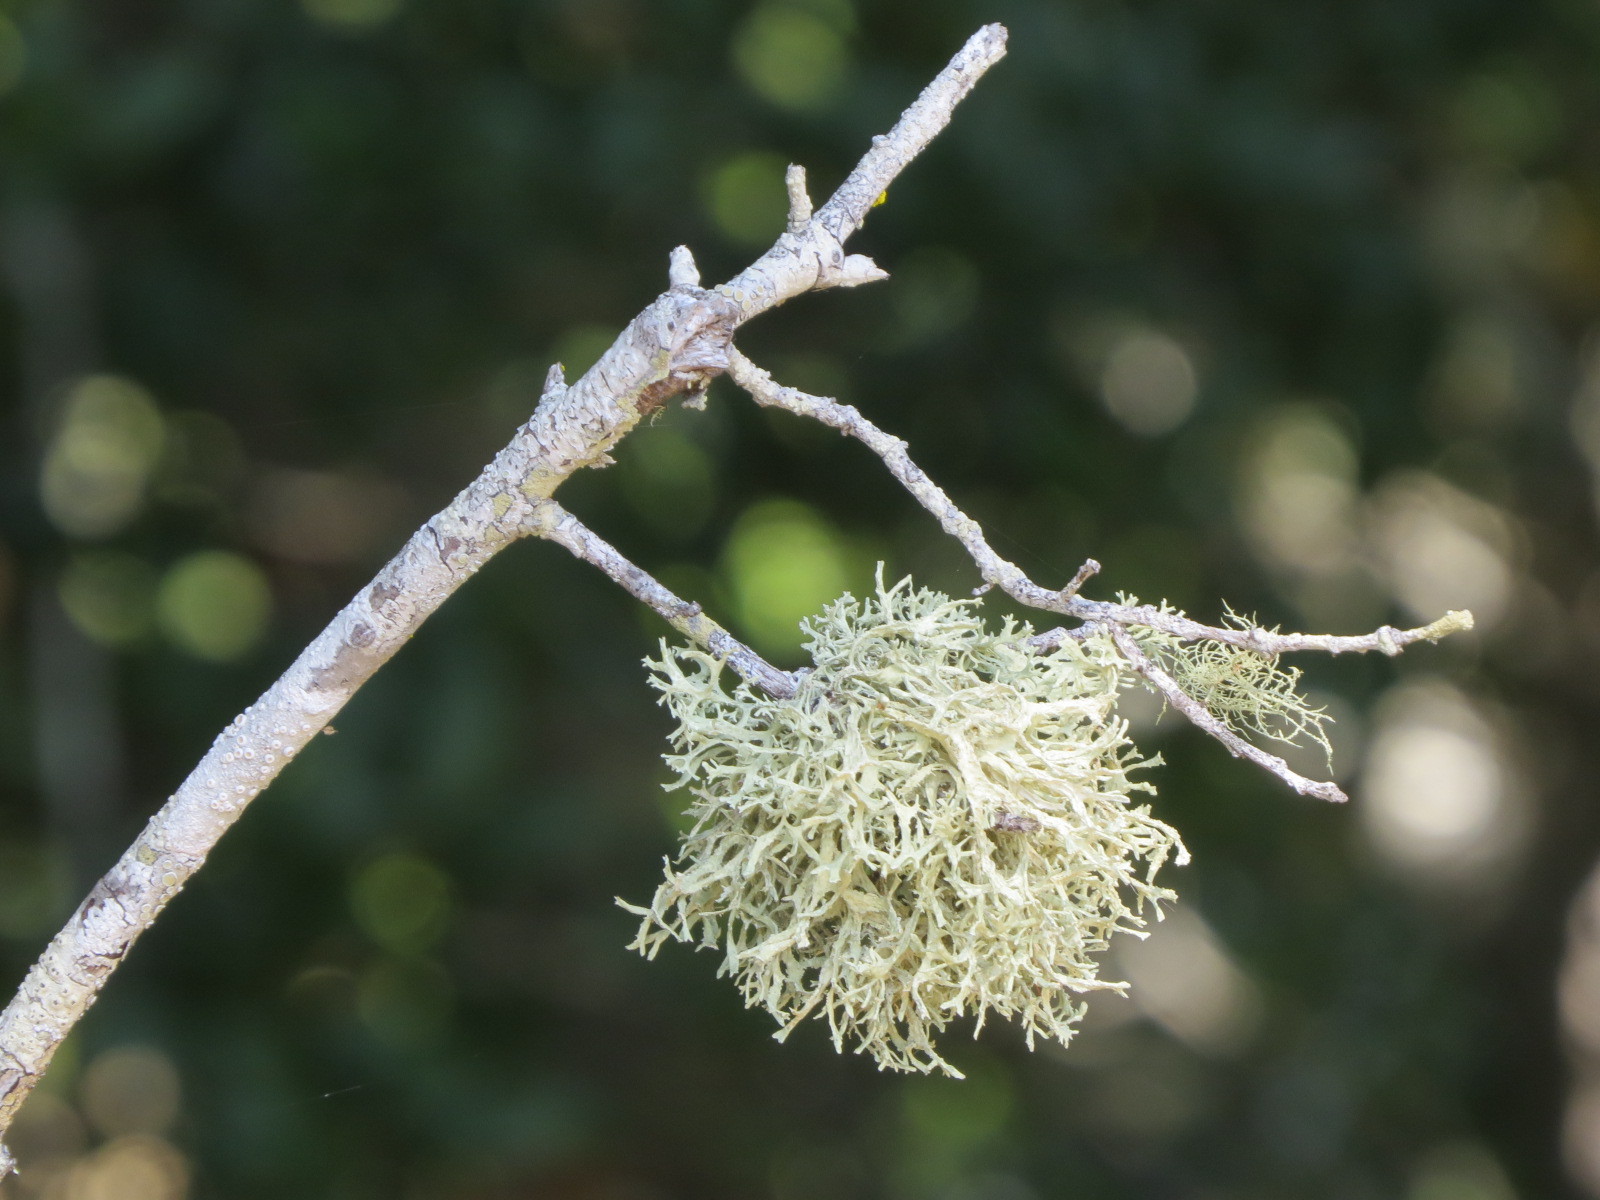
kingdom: Fungi
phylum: Ascomycota
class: Lecanoromycetes
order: Lecanorales
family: Parmeliaceae
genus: Evernia
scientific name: Evernia prunastri
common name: Oak moss
